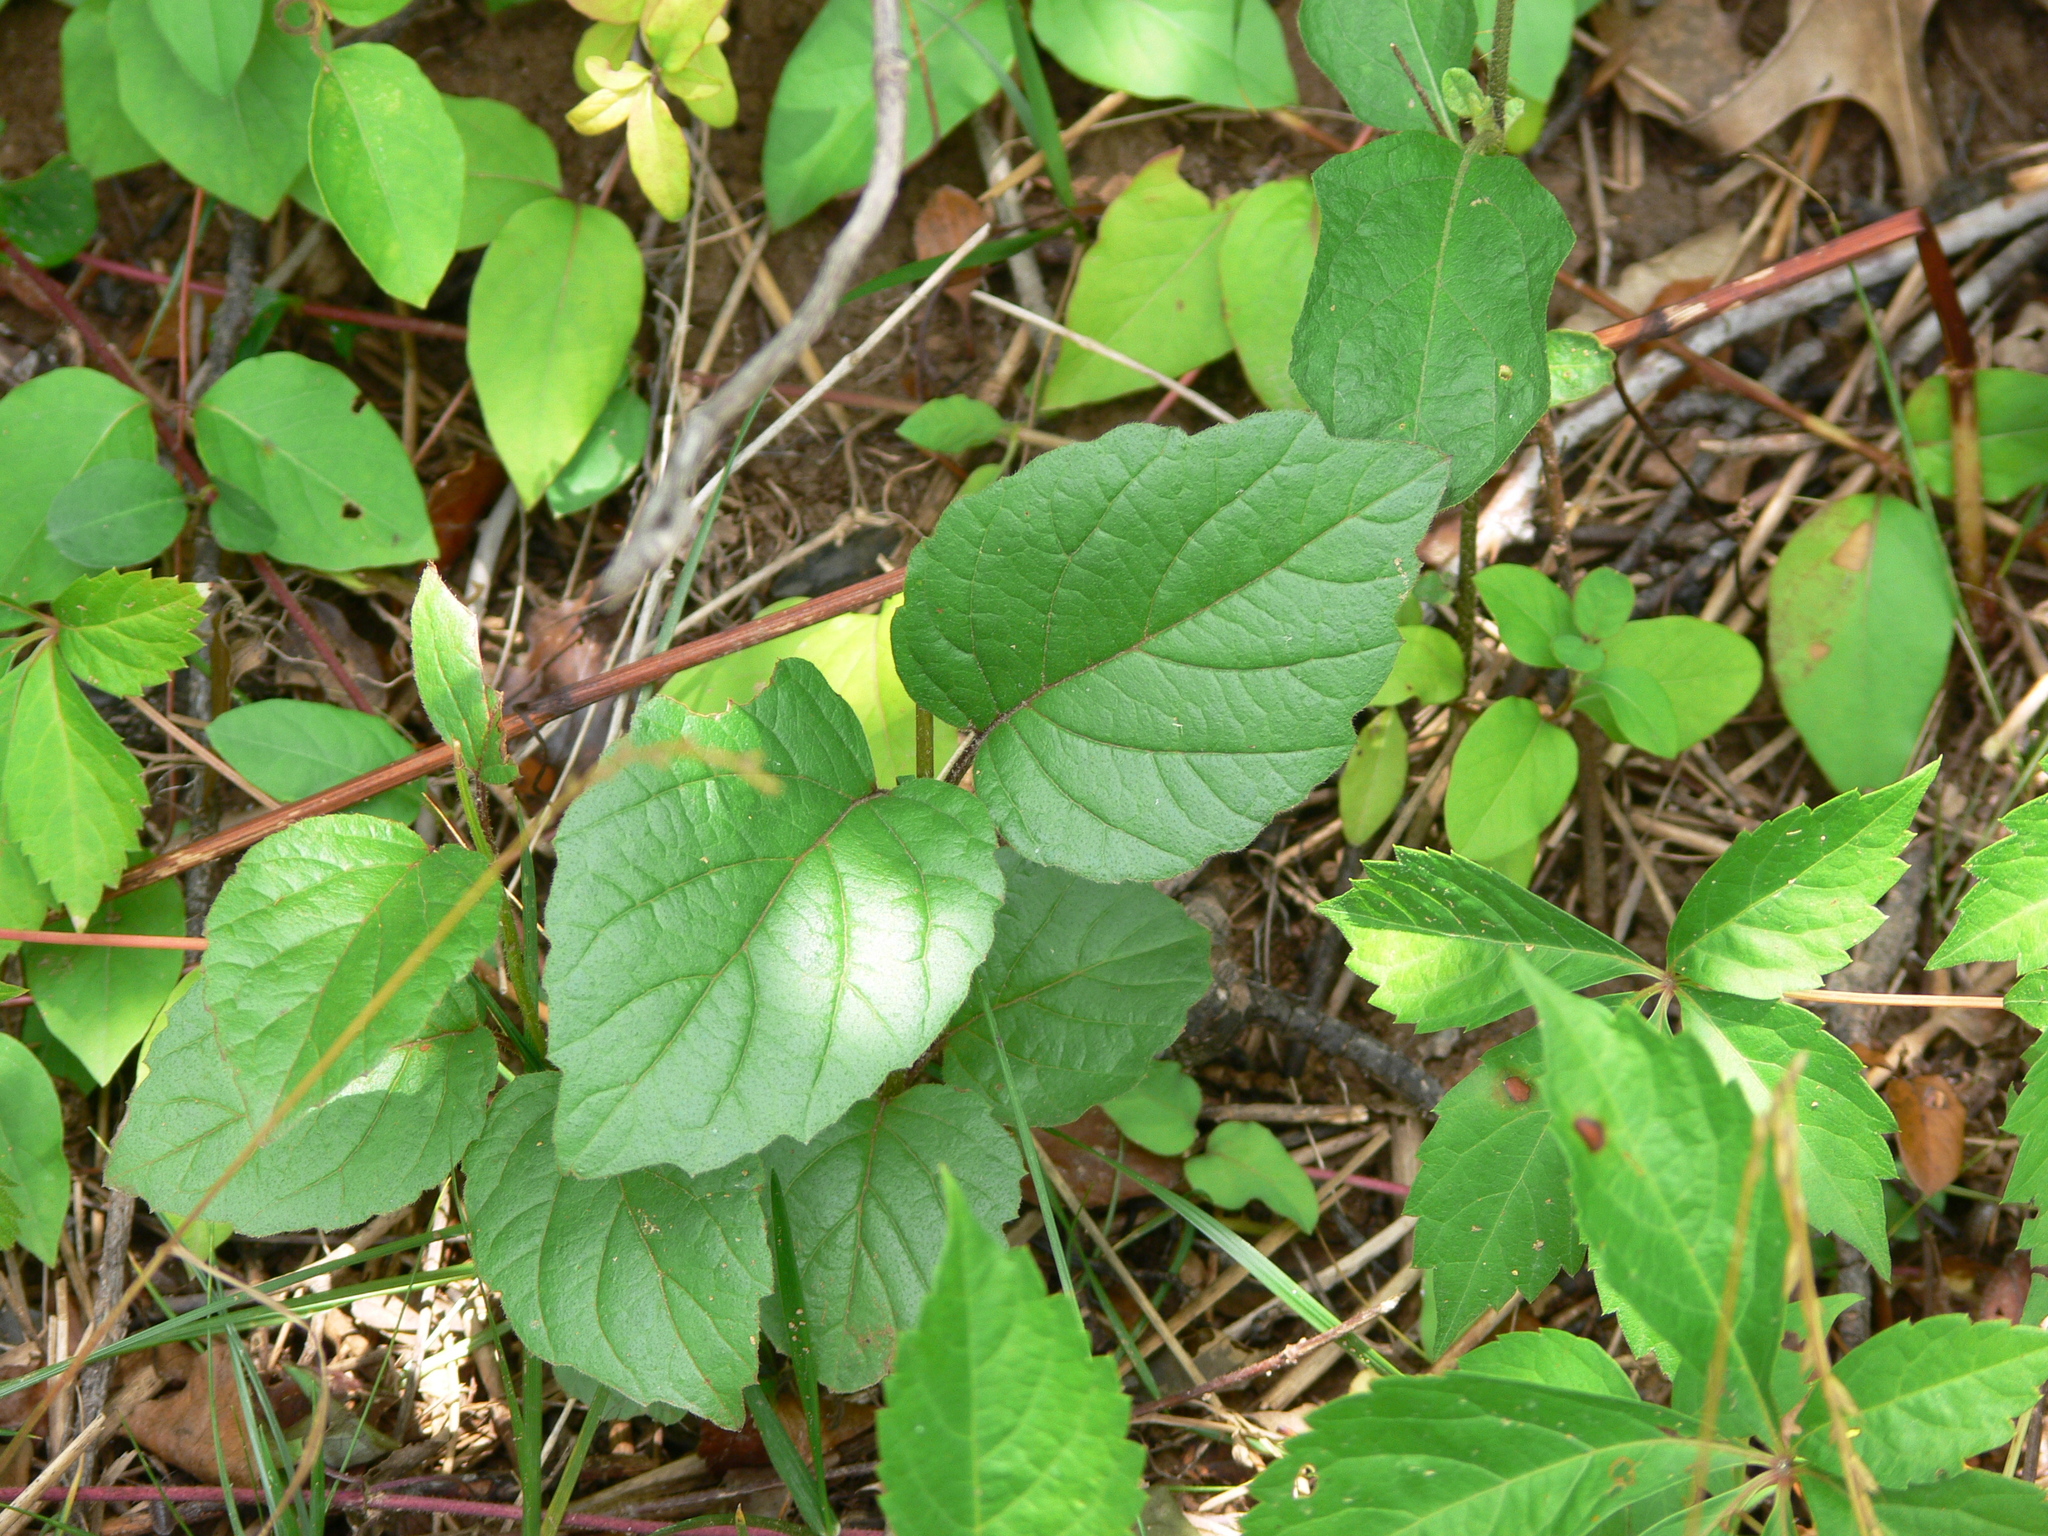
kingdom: Plantae
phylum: Tracheophyta
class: Magnoliopsida
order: Dipsacales
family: Viburnaceae
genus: Viburnum
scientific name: Viburnum dentatum
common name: Arrow-wood
